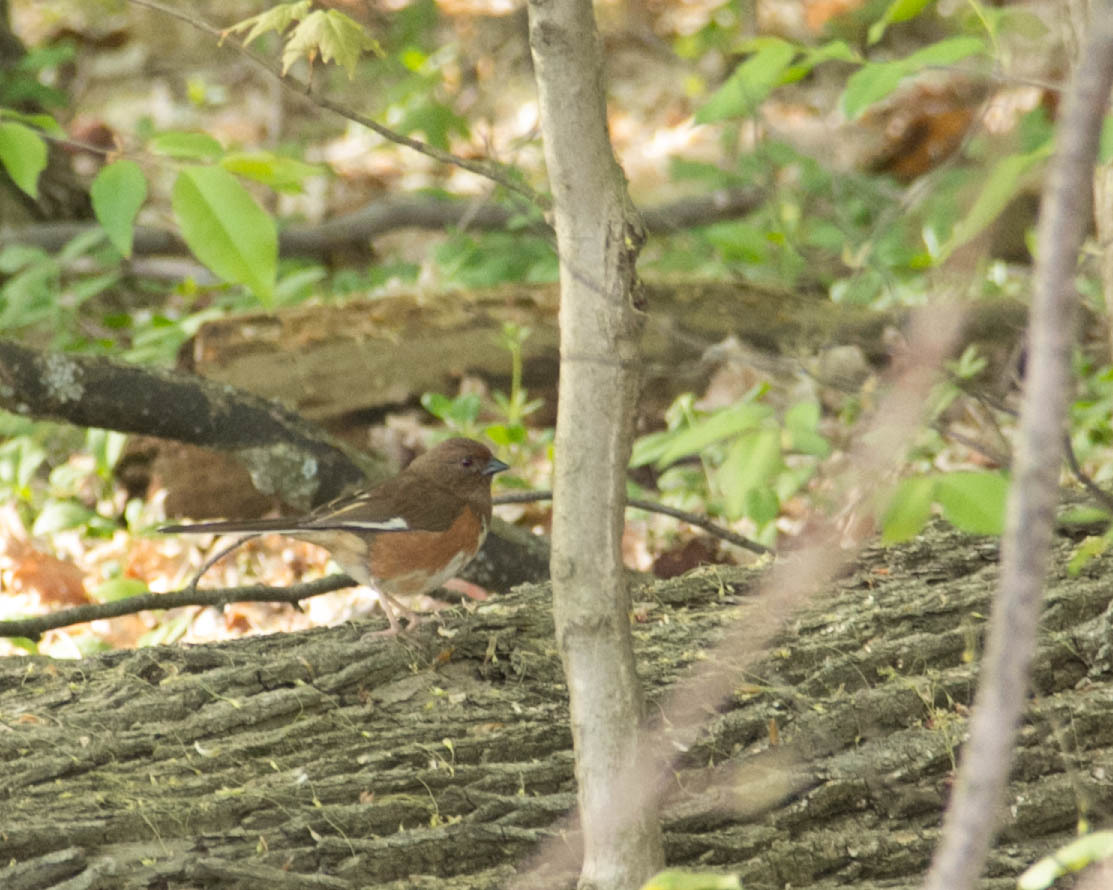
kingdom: Animalia
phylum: Chordata
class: Aves
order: Passeriformes
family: Passerellidae
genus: Pipilo
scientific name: Pipilo erythrophthalmus
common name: Eastern towhee
